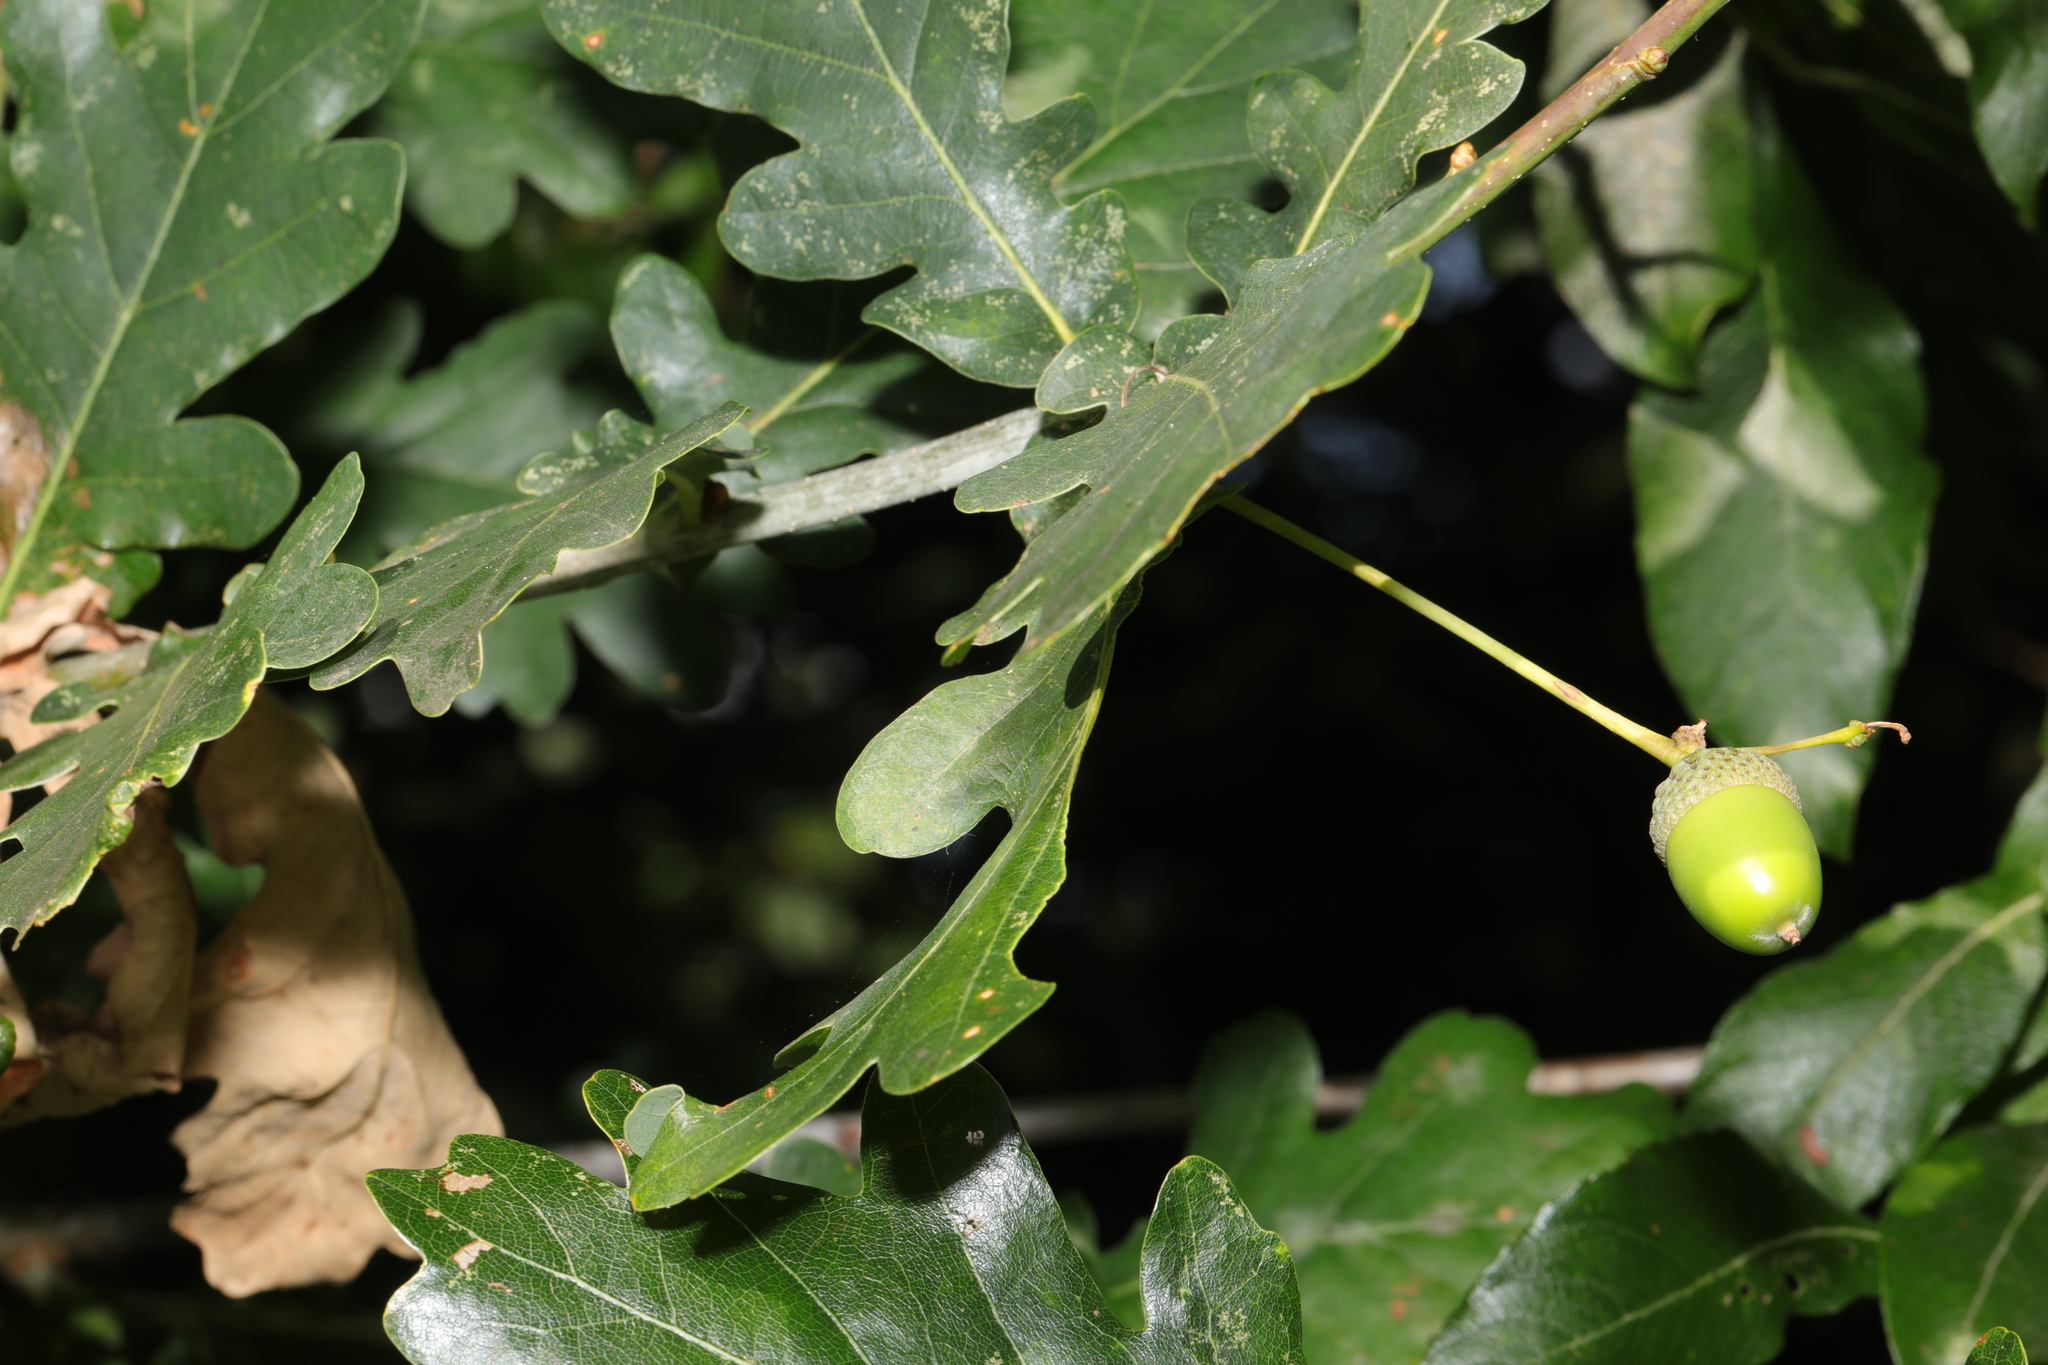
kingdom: Plantae
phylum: Tracheophyta
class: Magnoliopsida
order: Fagales
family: Fagaceae
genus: Quercus
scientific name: Quercus robur
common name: Pedunculate oak
